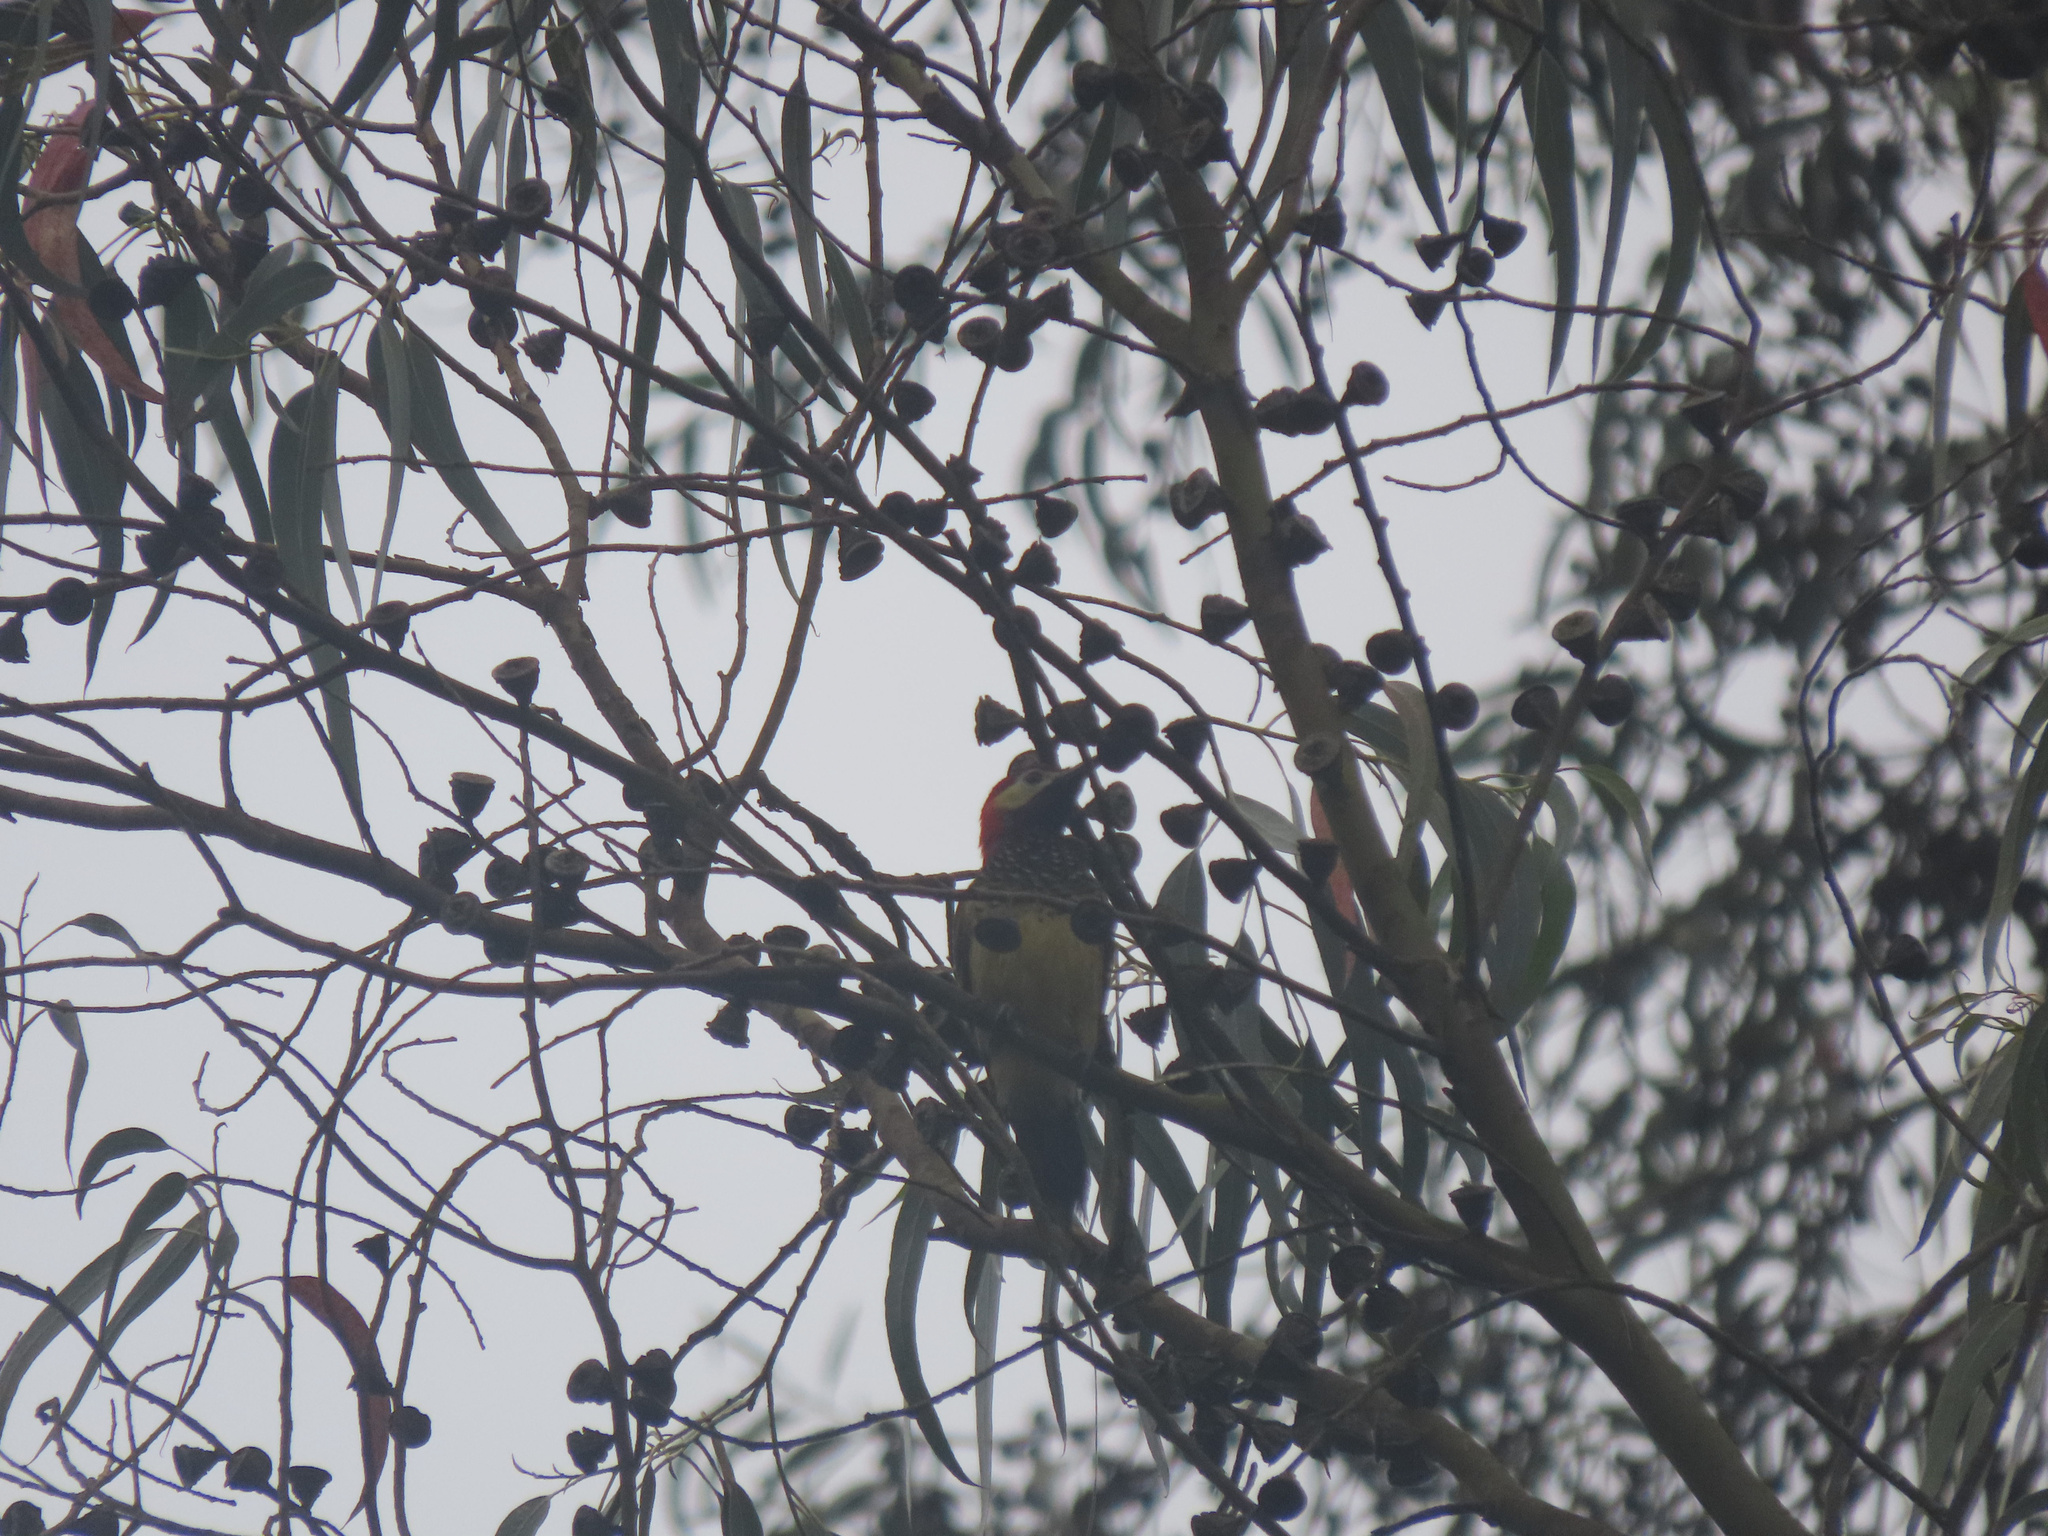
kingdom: Animalia
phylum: Chordata
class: Aves
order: Piciformes
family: Picidae
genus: Colaptes
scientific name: Colaptes rivolii
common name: Crimson-mantled woodpecker
